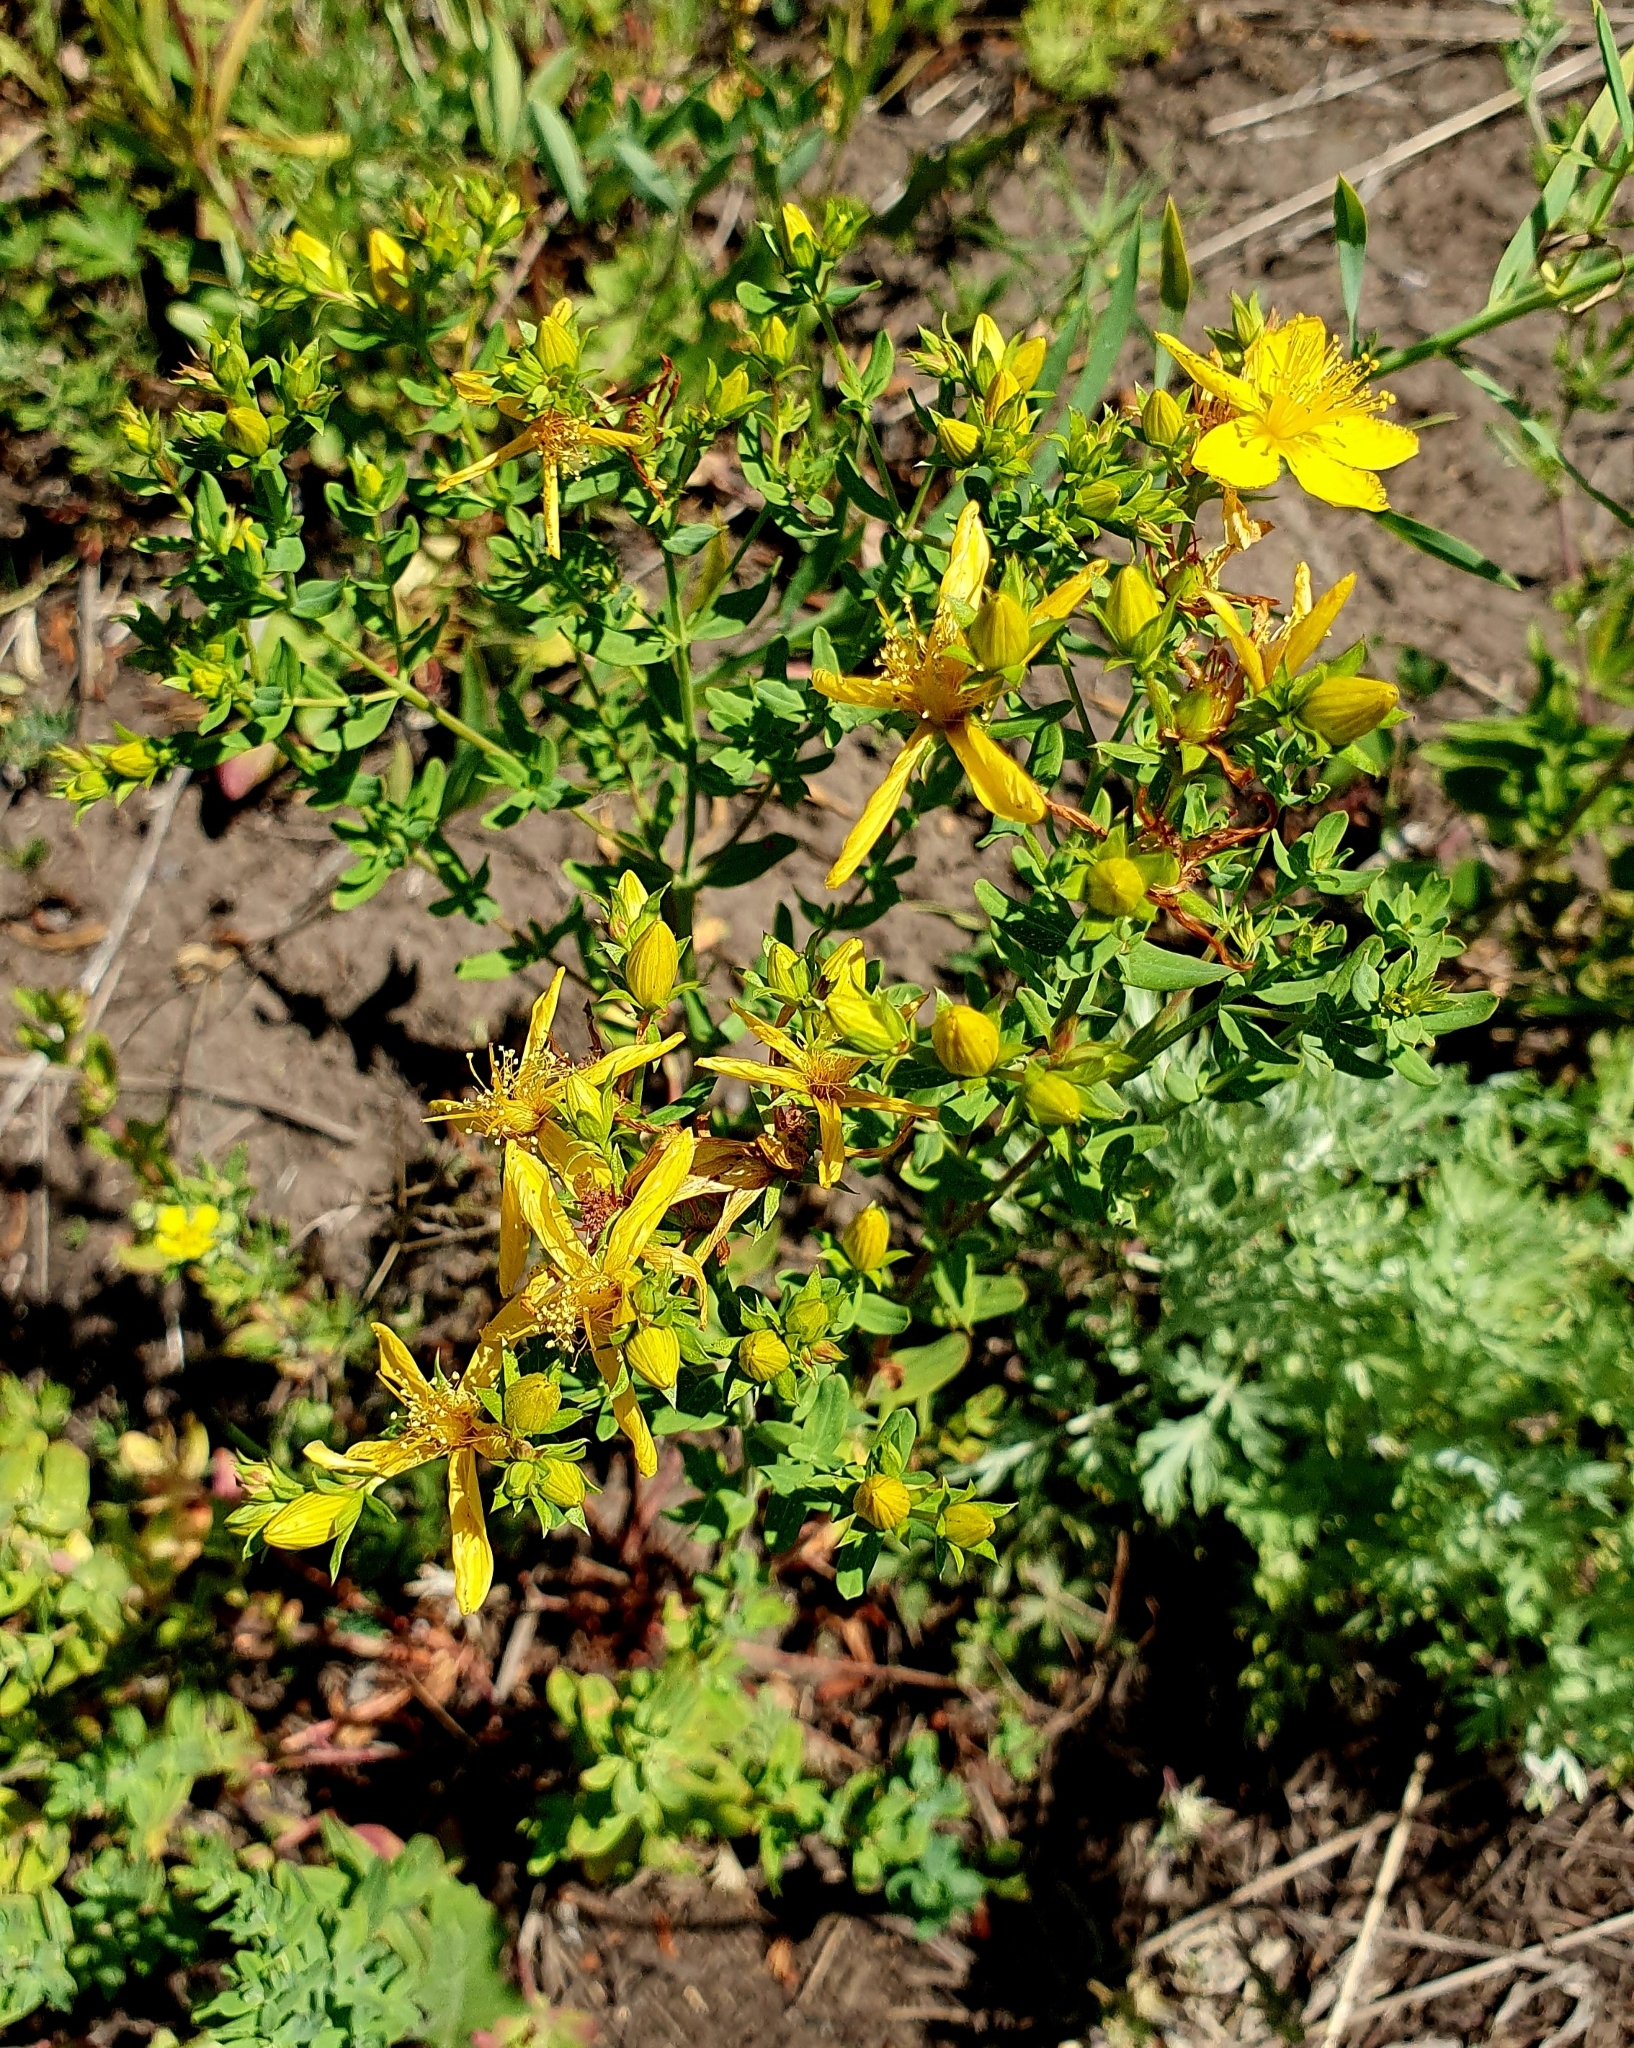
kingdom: Plantae
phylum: Tracheophyta
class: Magnoliopsida
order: Malpighiales
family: Hypericaceae
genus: Hypericum
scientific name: Hypericum perforatum
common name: Common st. johnswort
